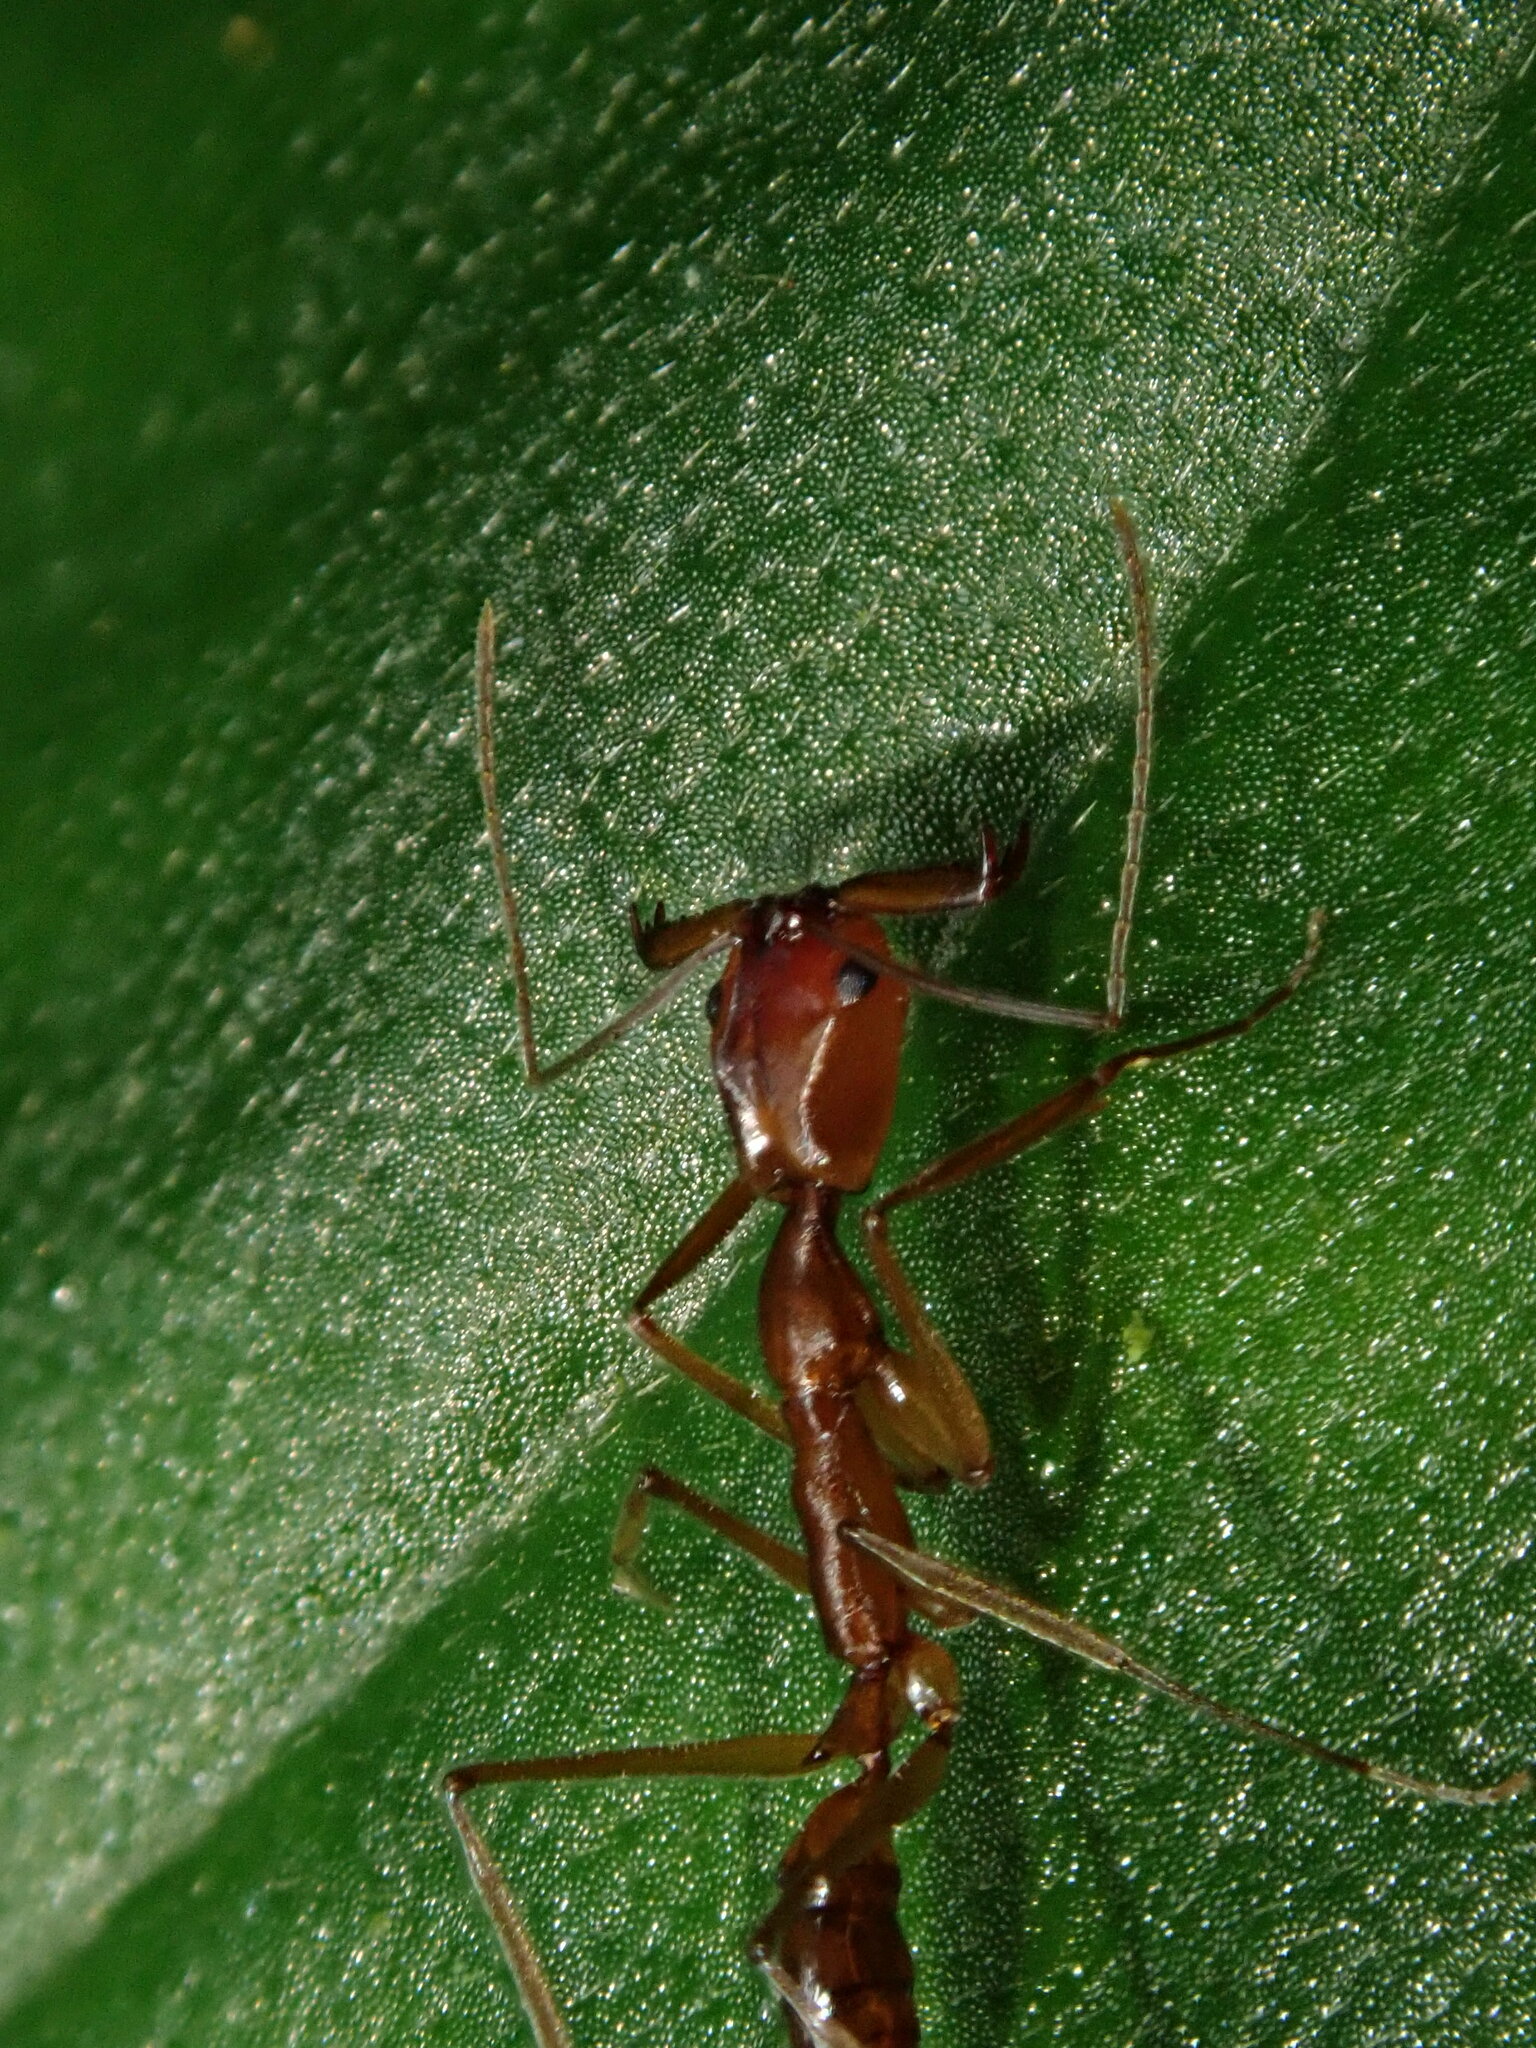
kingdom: Animalia
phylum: Arthropoda
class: Insecta
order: Hymenoptera
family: Formicidae
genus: Anochetus
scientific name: Anochetus inca
